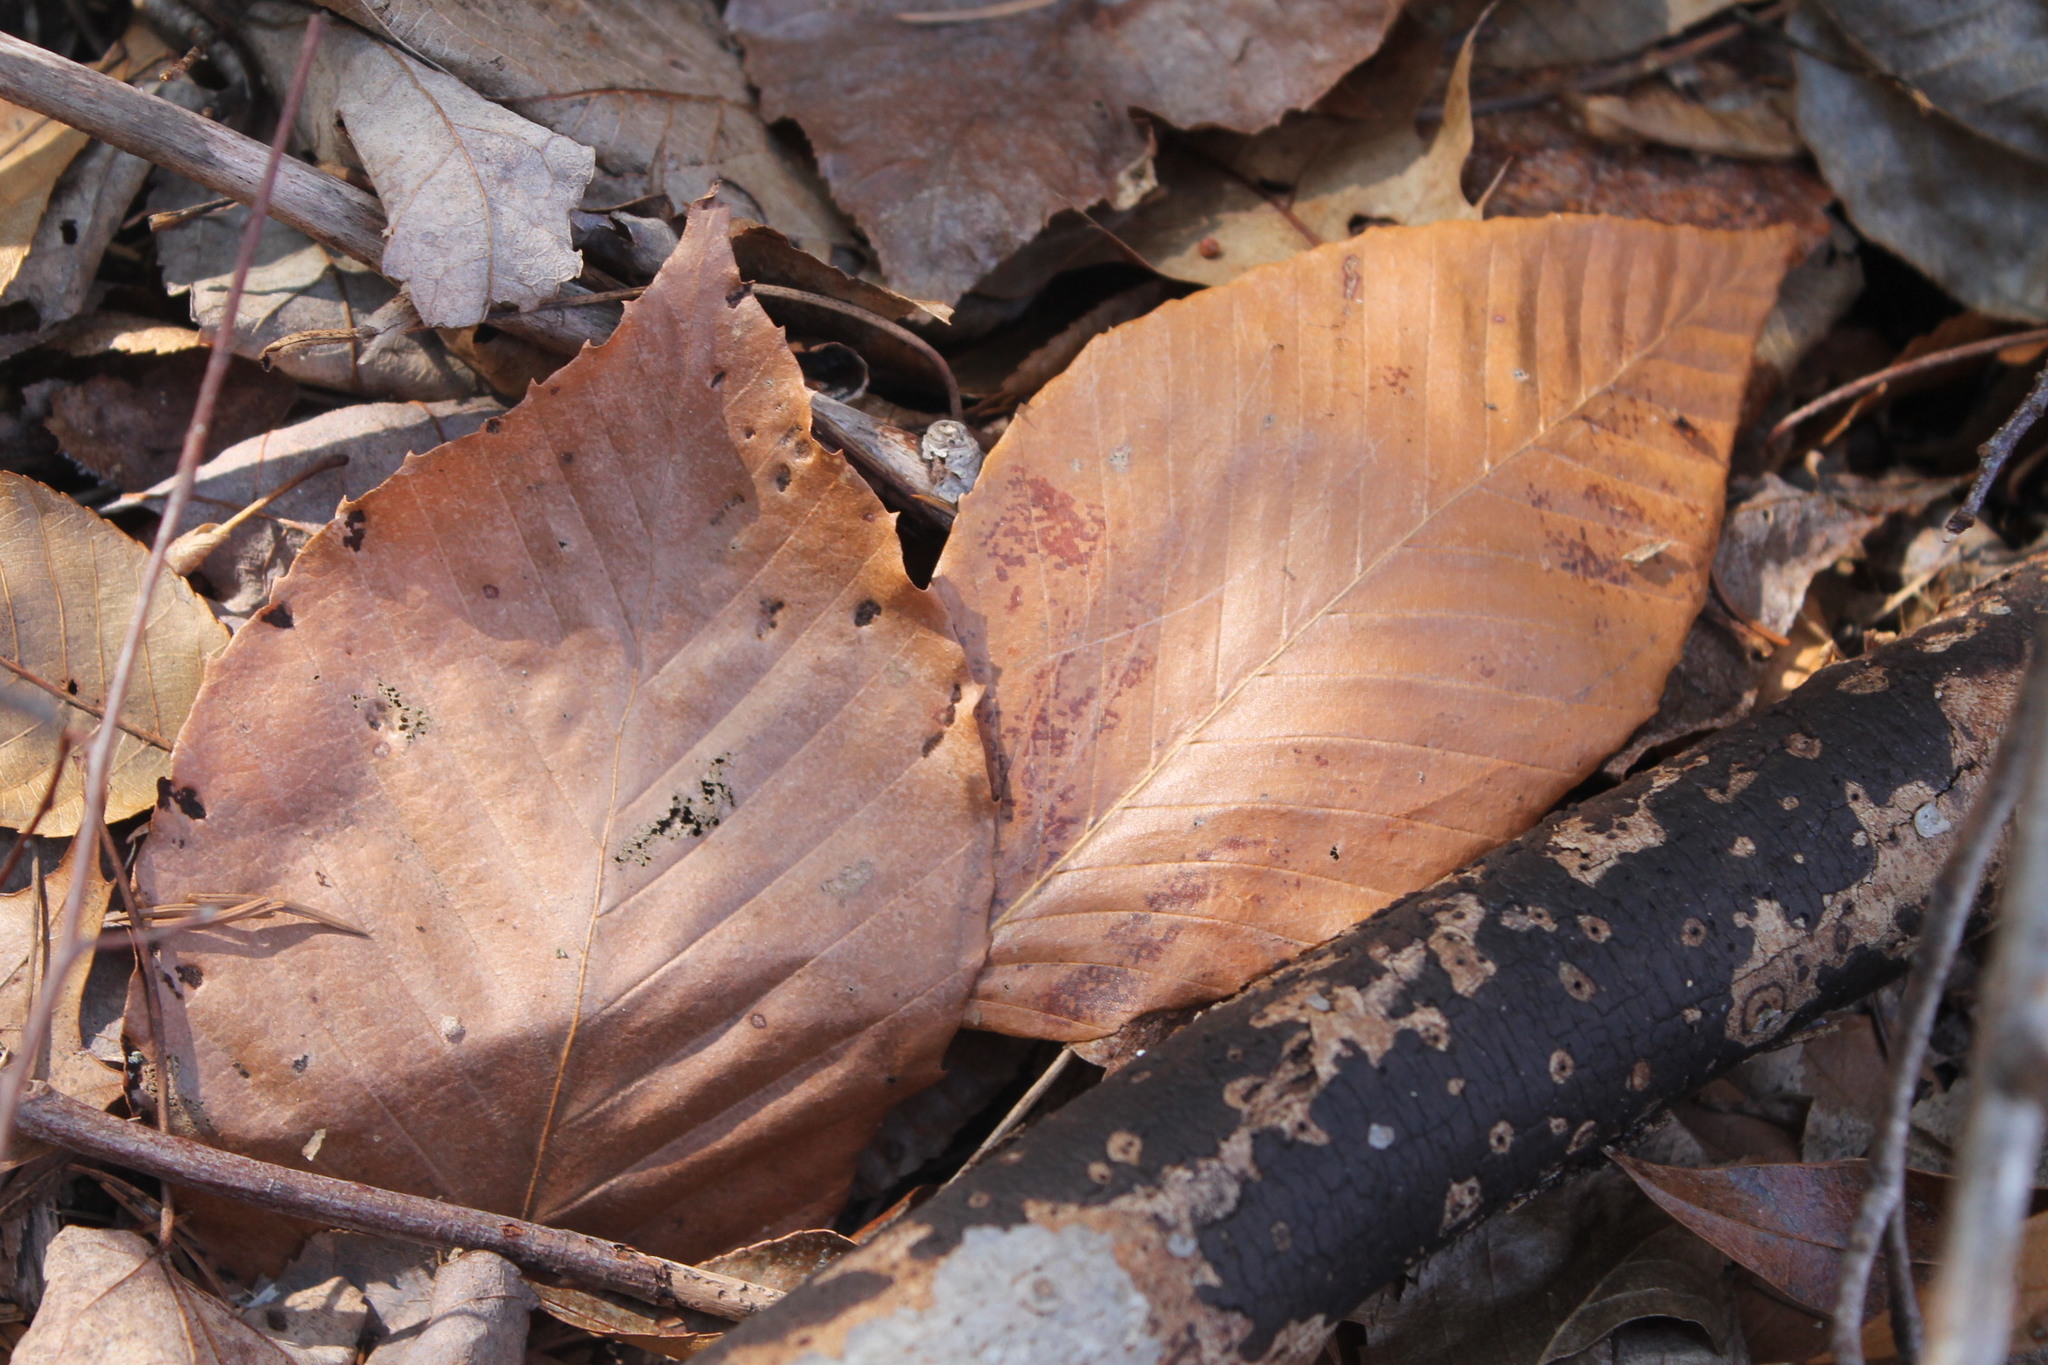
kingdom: Plantae
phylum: Tracheophyta
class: Magnoliopsida
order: Fagales
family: Fagaceae
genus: Fagus
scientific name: Fagus grandifolia
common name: American beech
